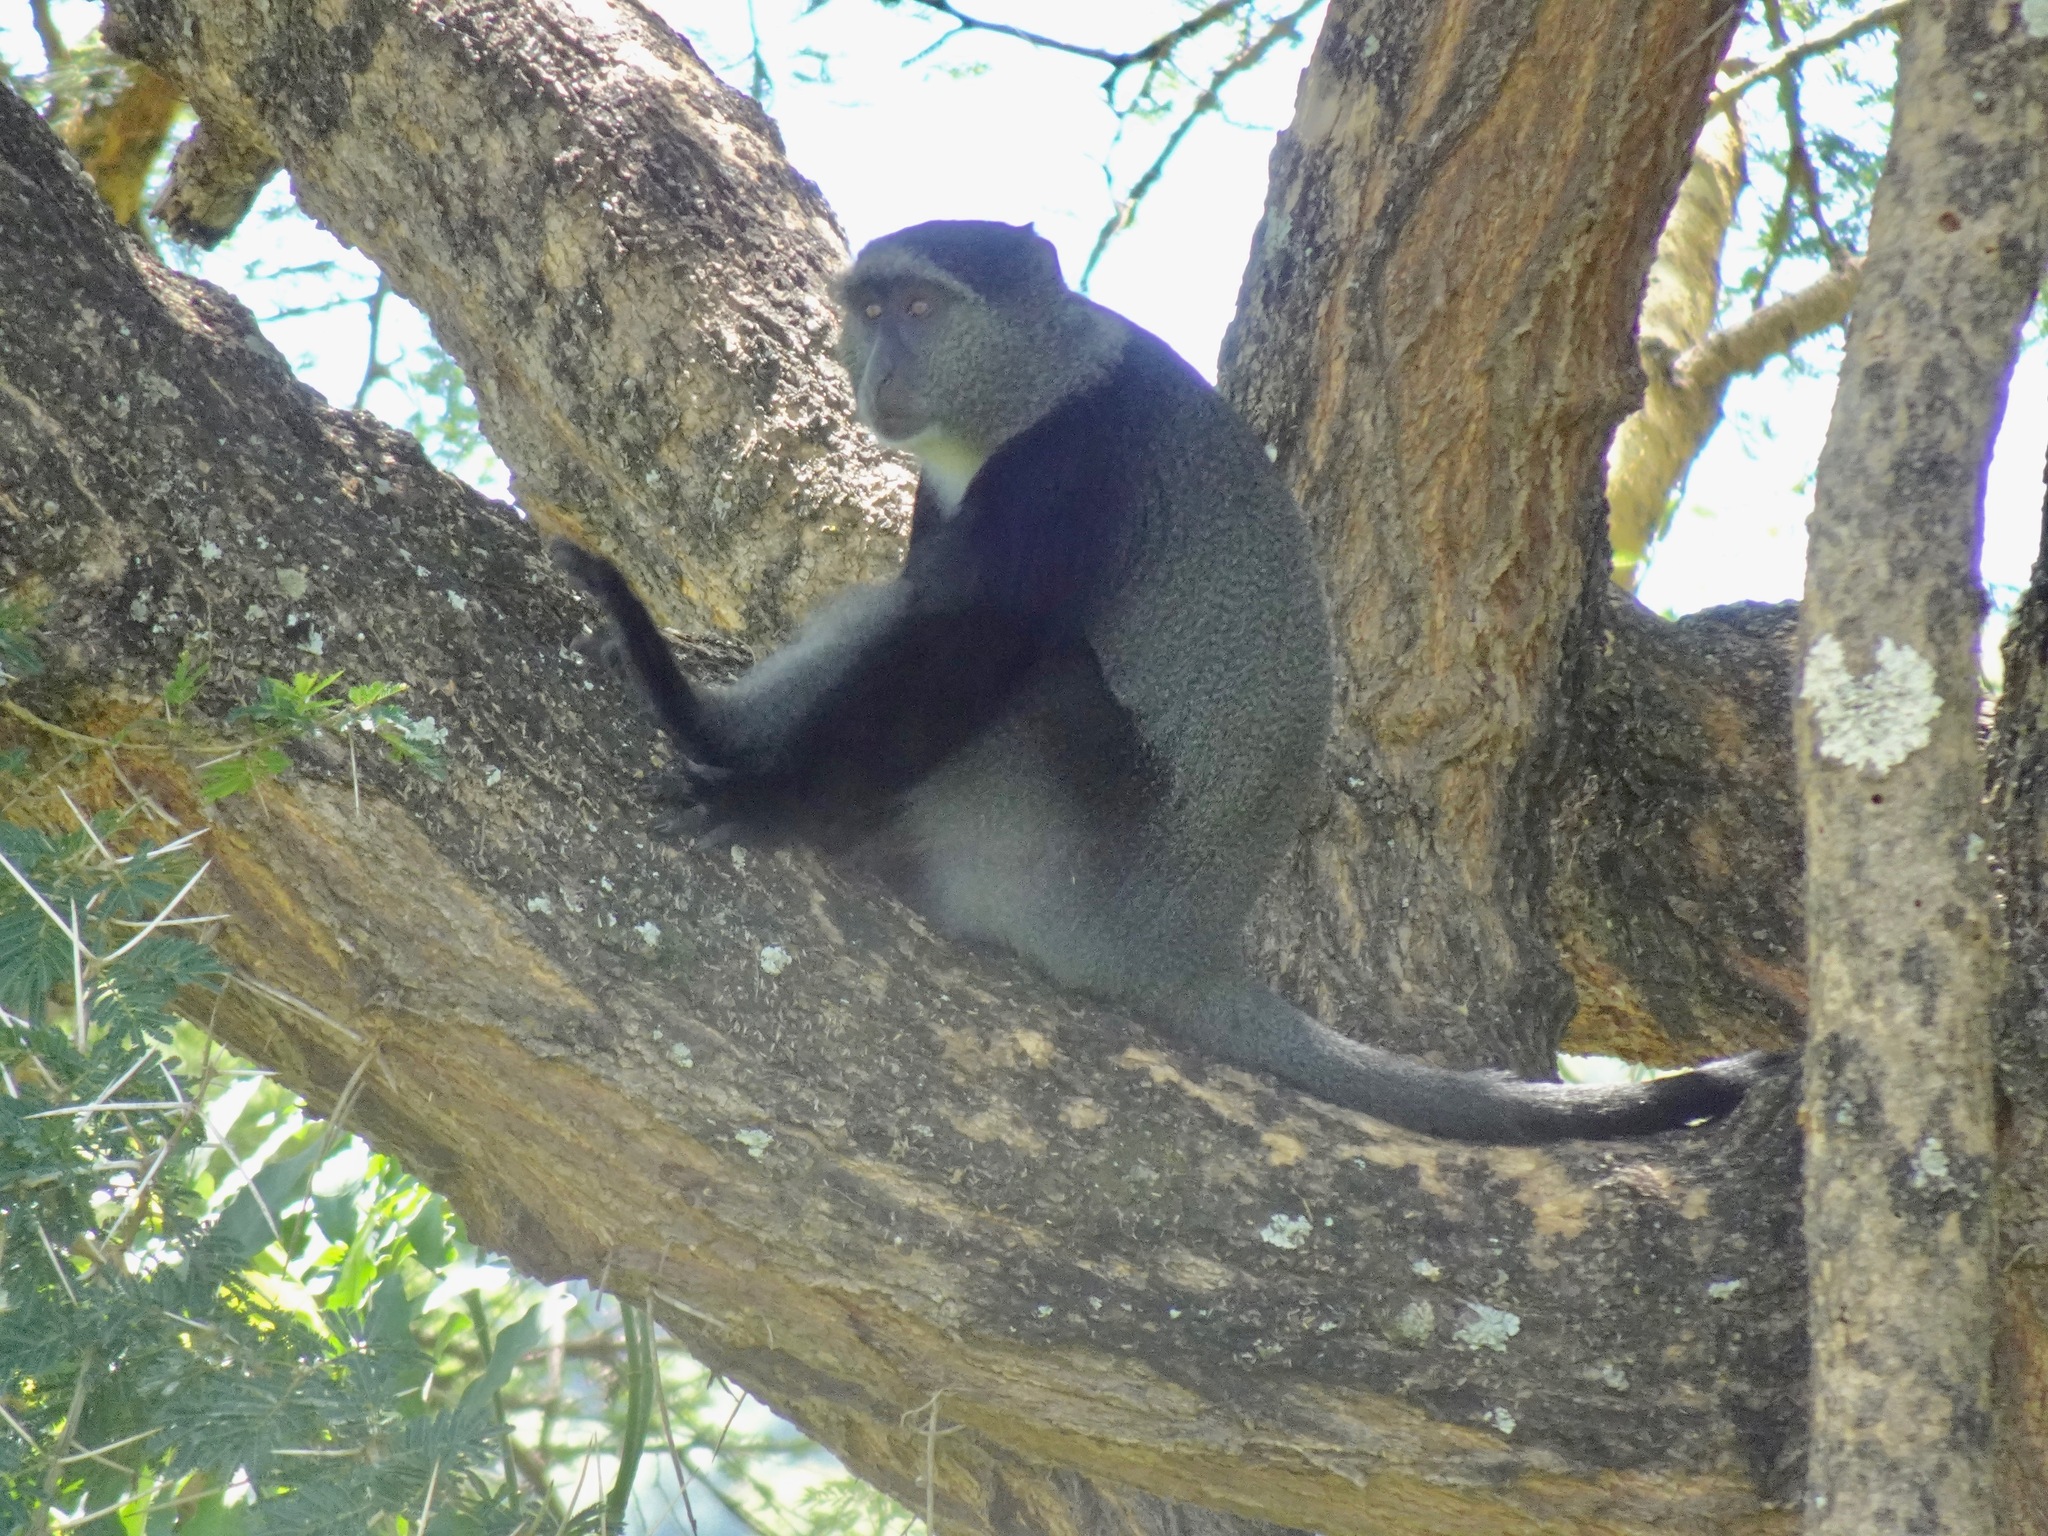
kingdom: Animalia
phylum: Chordata
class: Mammalia
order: Primates
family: Cercopithecidae
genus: Cercopithecus
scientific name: Cercopithecus mitis
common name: Blue monkey
